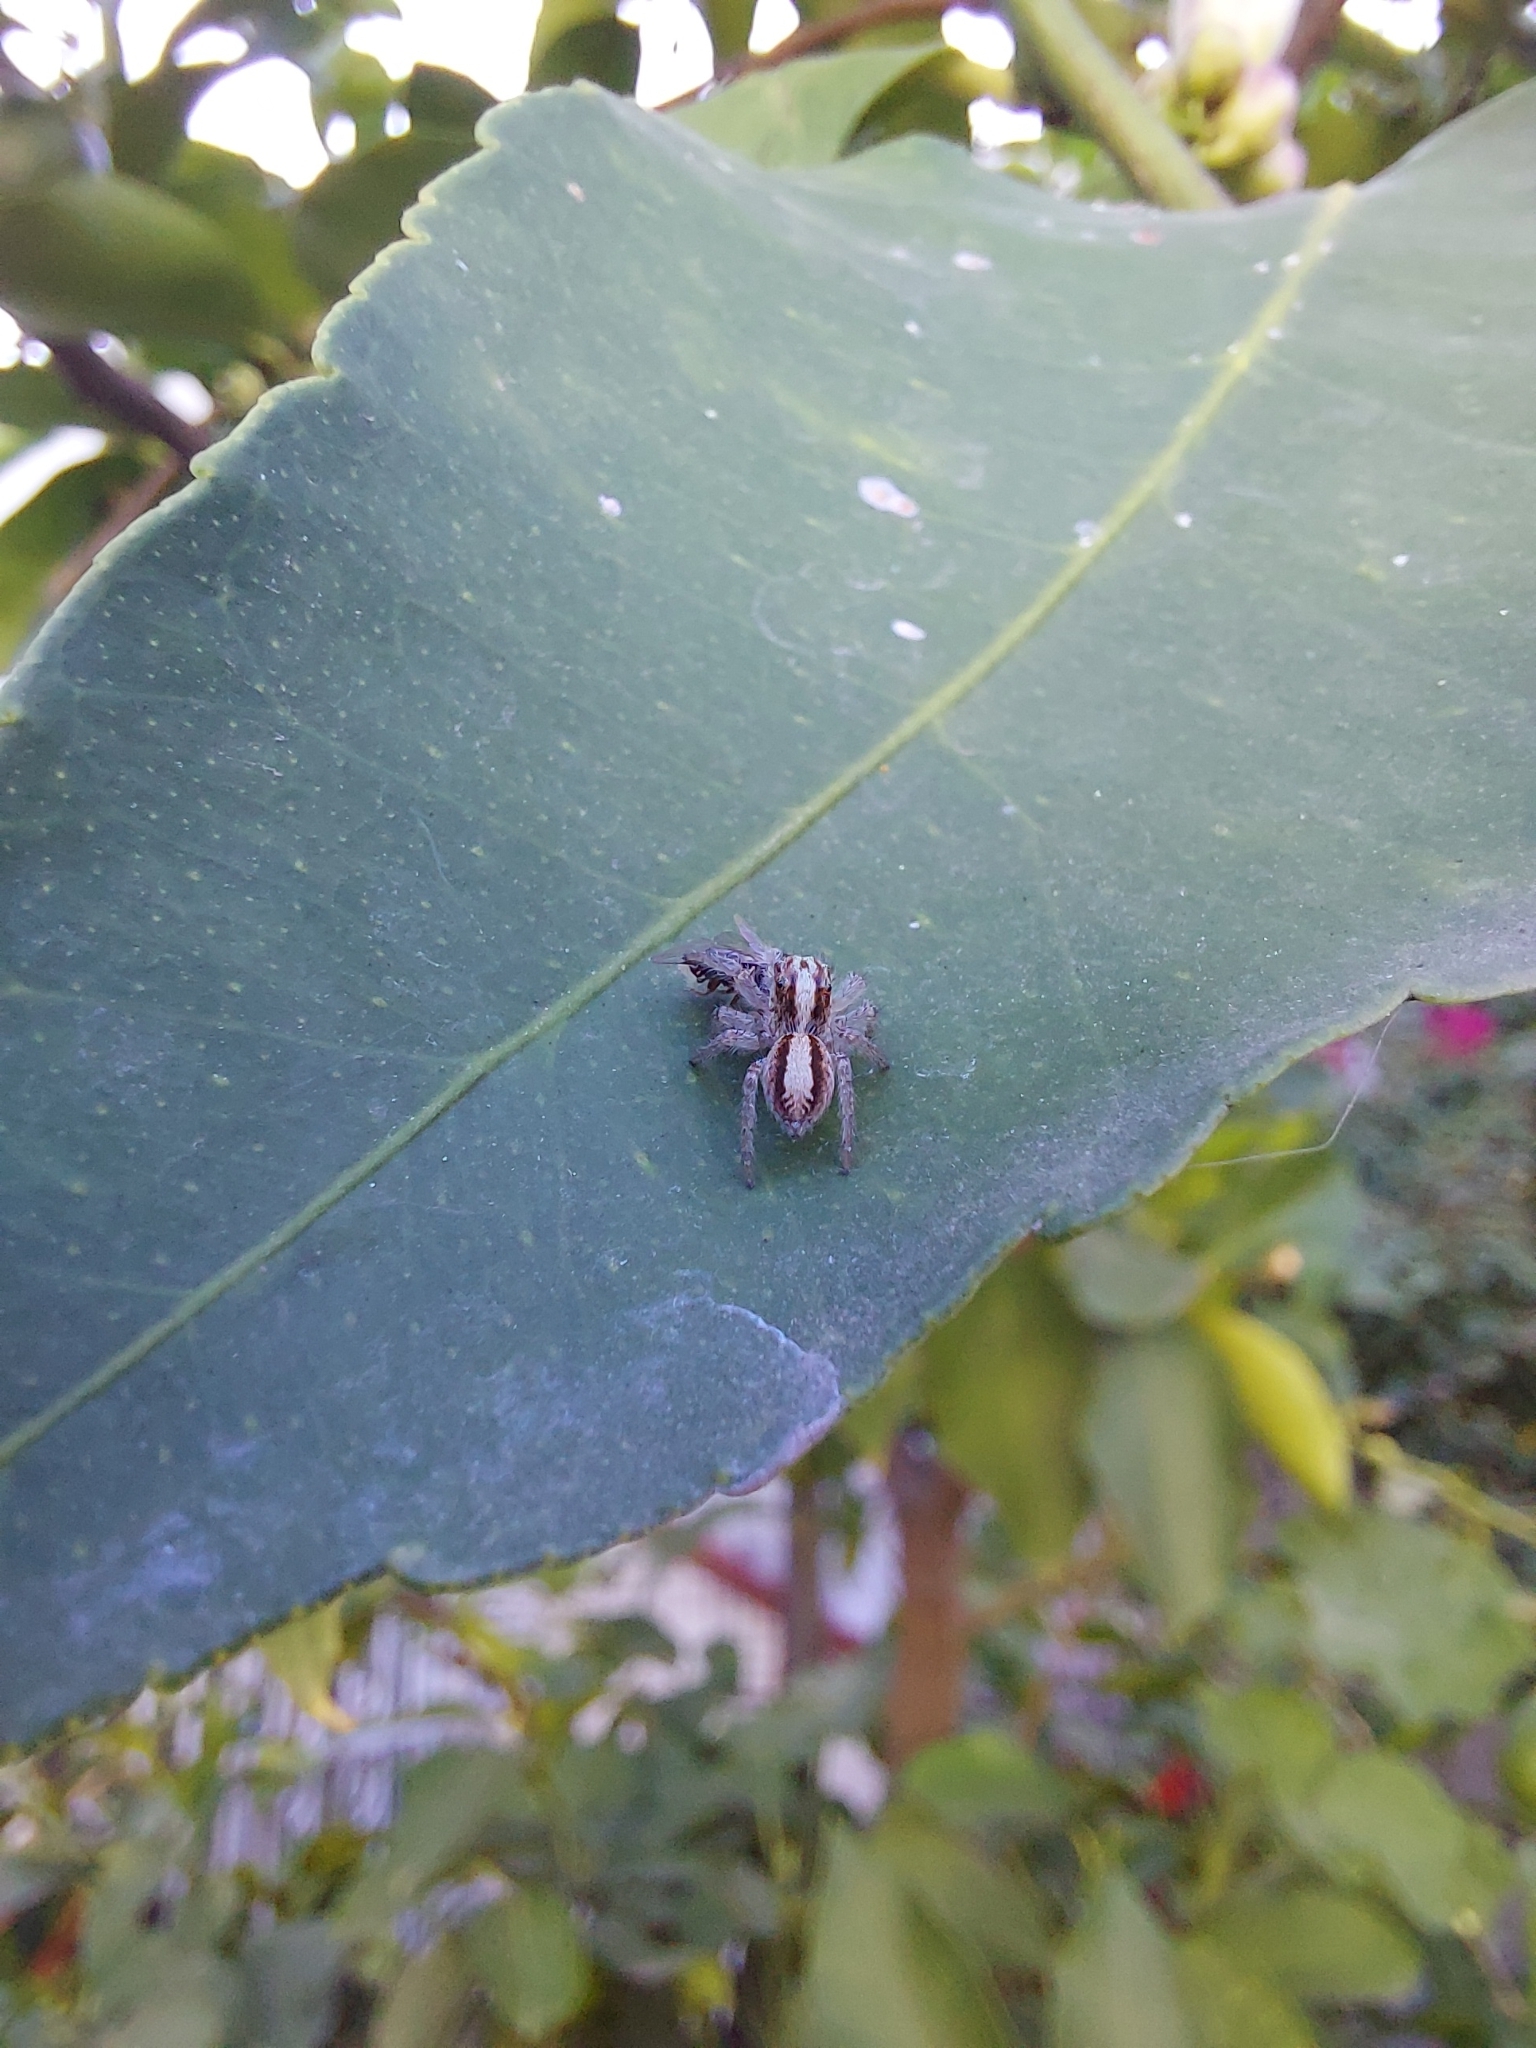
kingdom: Animalia
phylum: Arthropoda
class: Arachnida
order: Araneae
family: Salticidae
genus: Megafreya
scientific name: Megafreya sutrix
